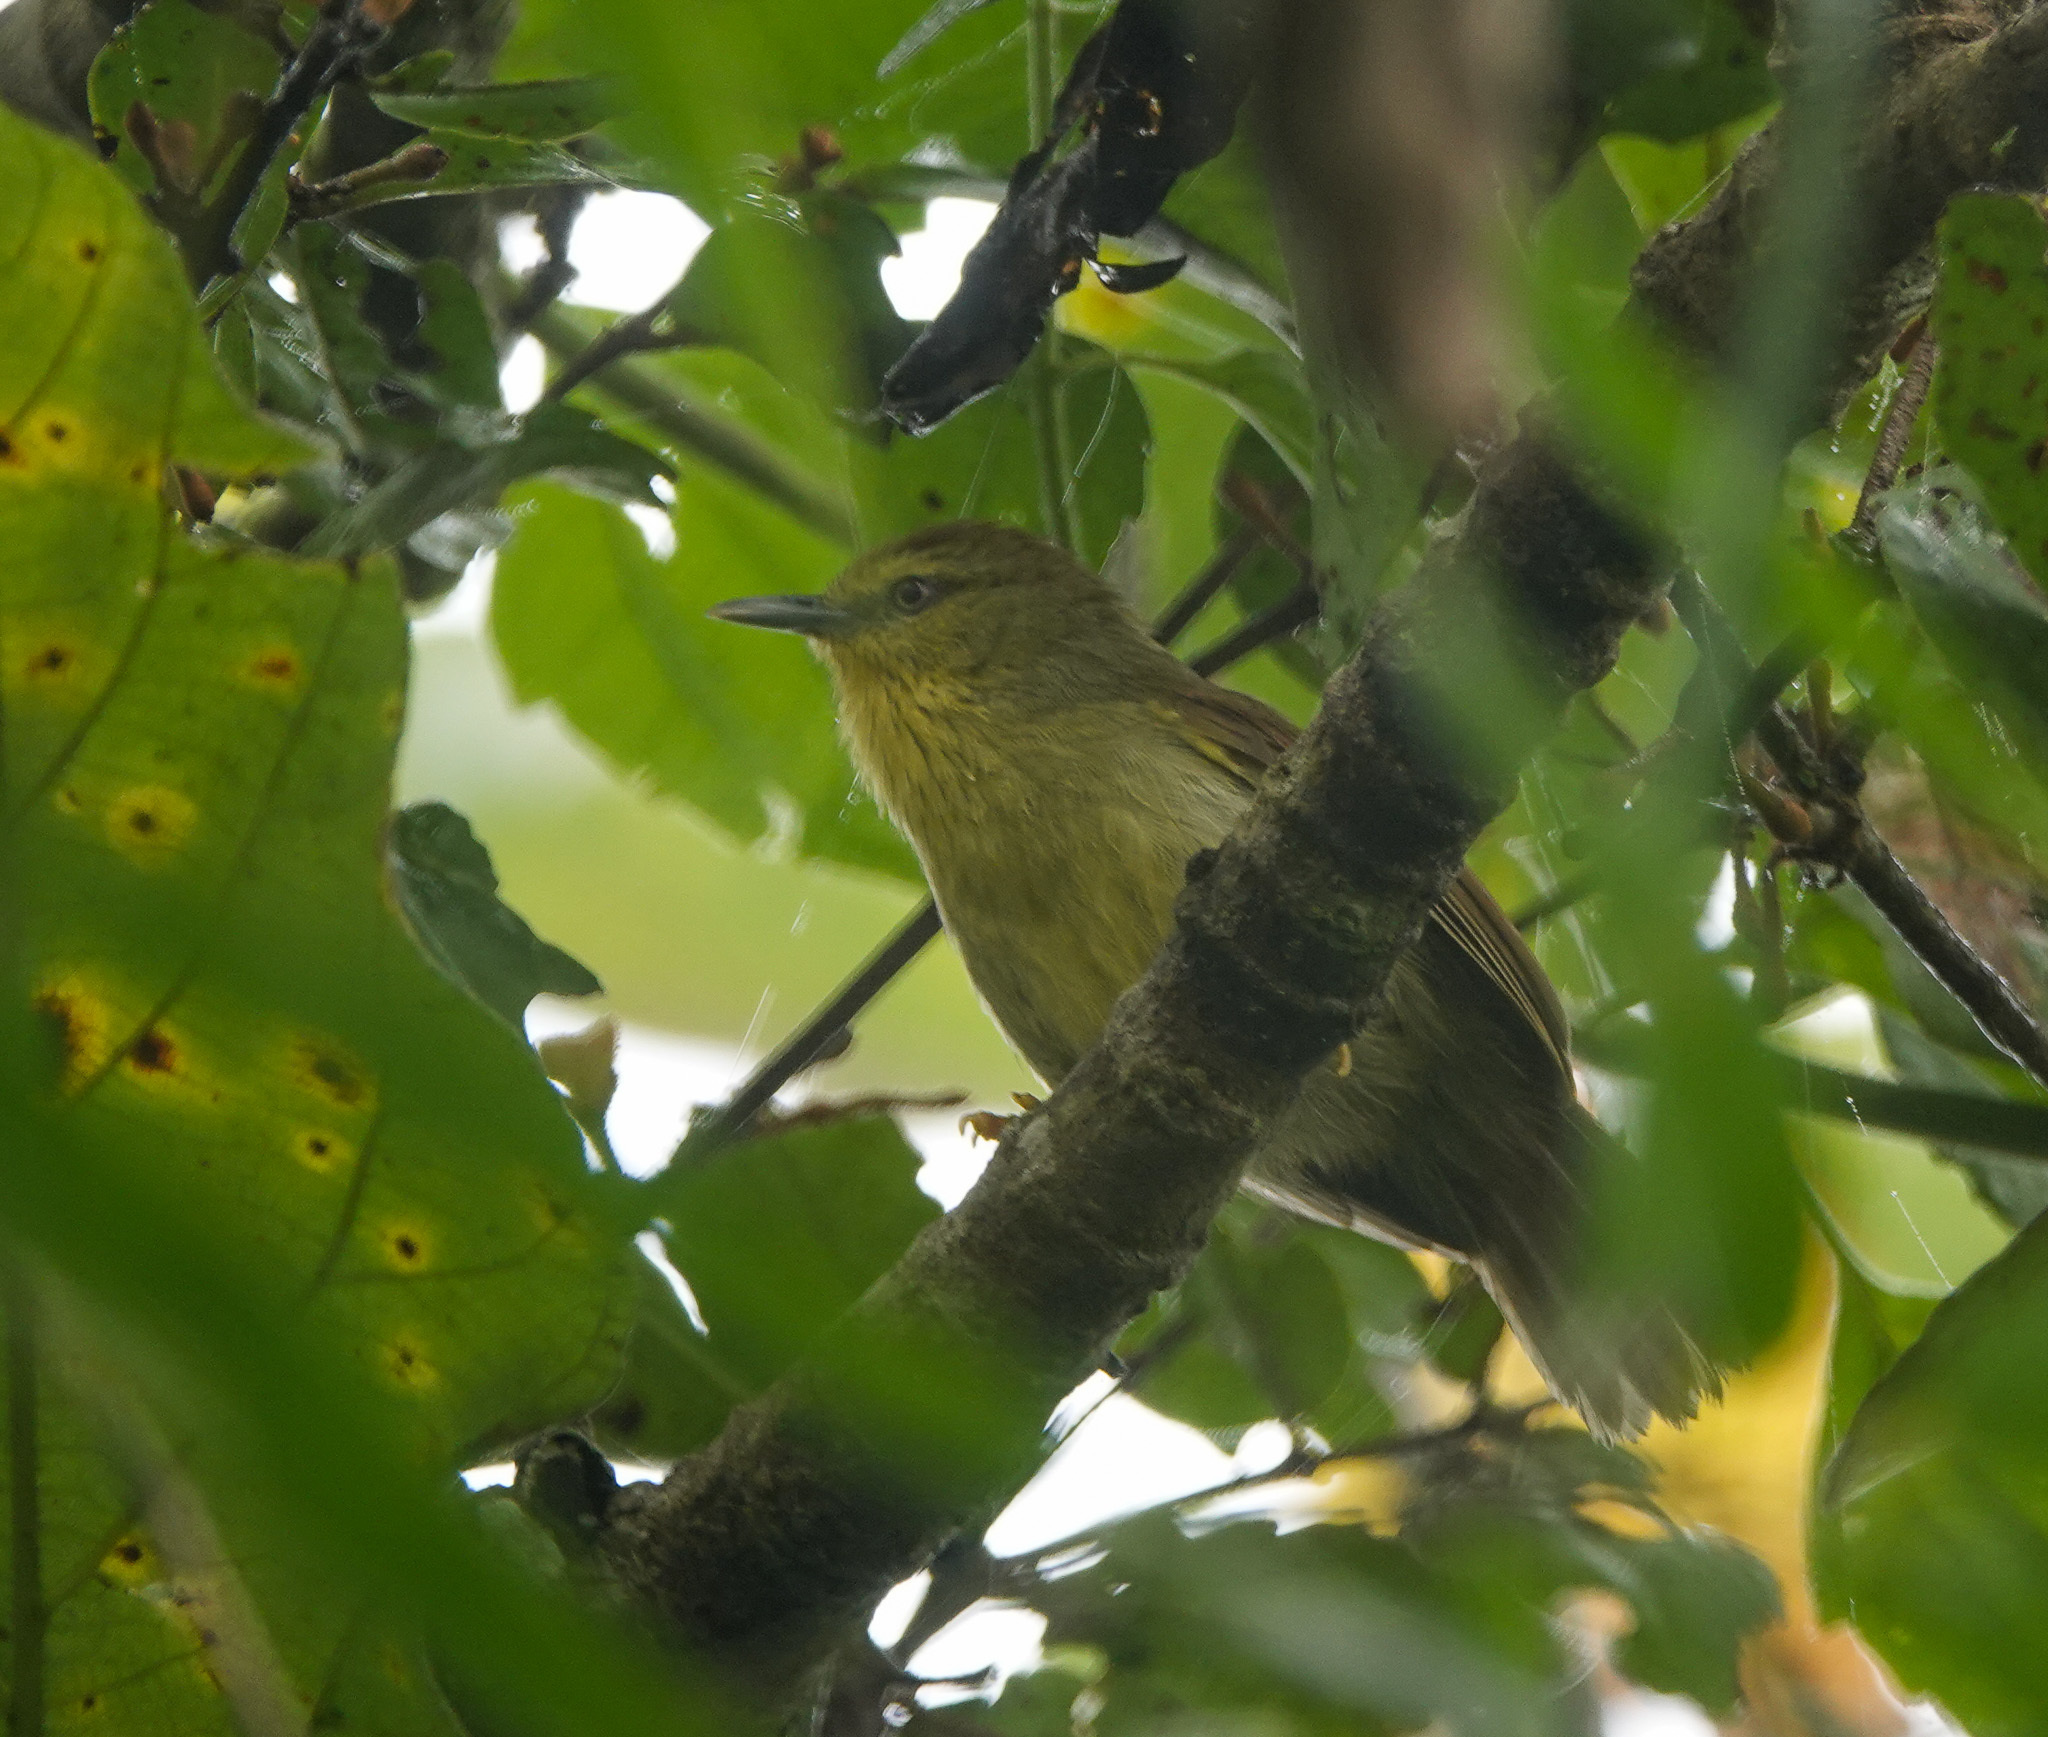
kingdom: Animalia
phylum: Chordata
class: Aves
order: Passeriformes
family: Timaliidae
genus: Macronus
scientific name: Macronus gularis
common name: Striped tit-babbler
